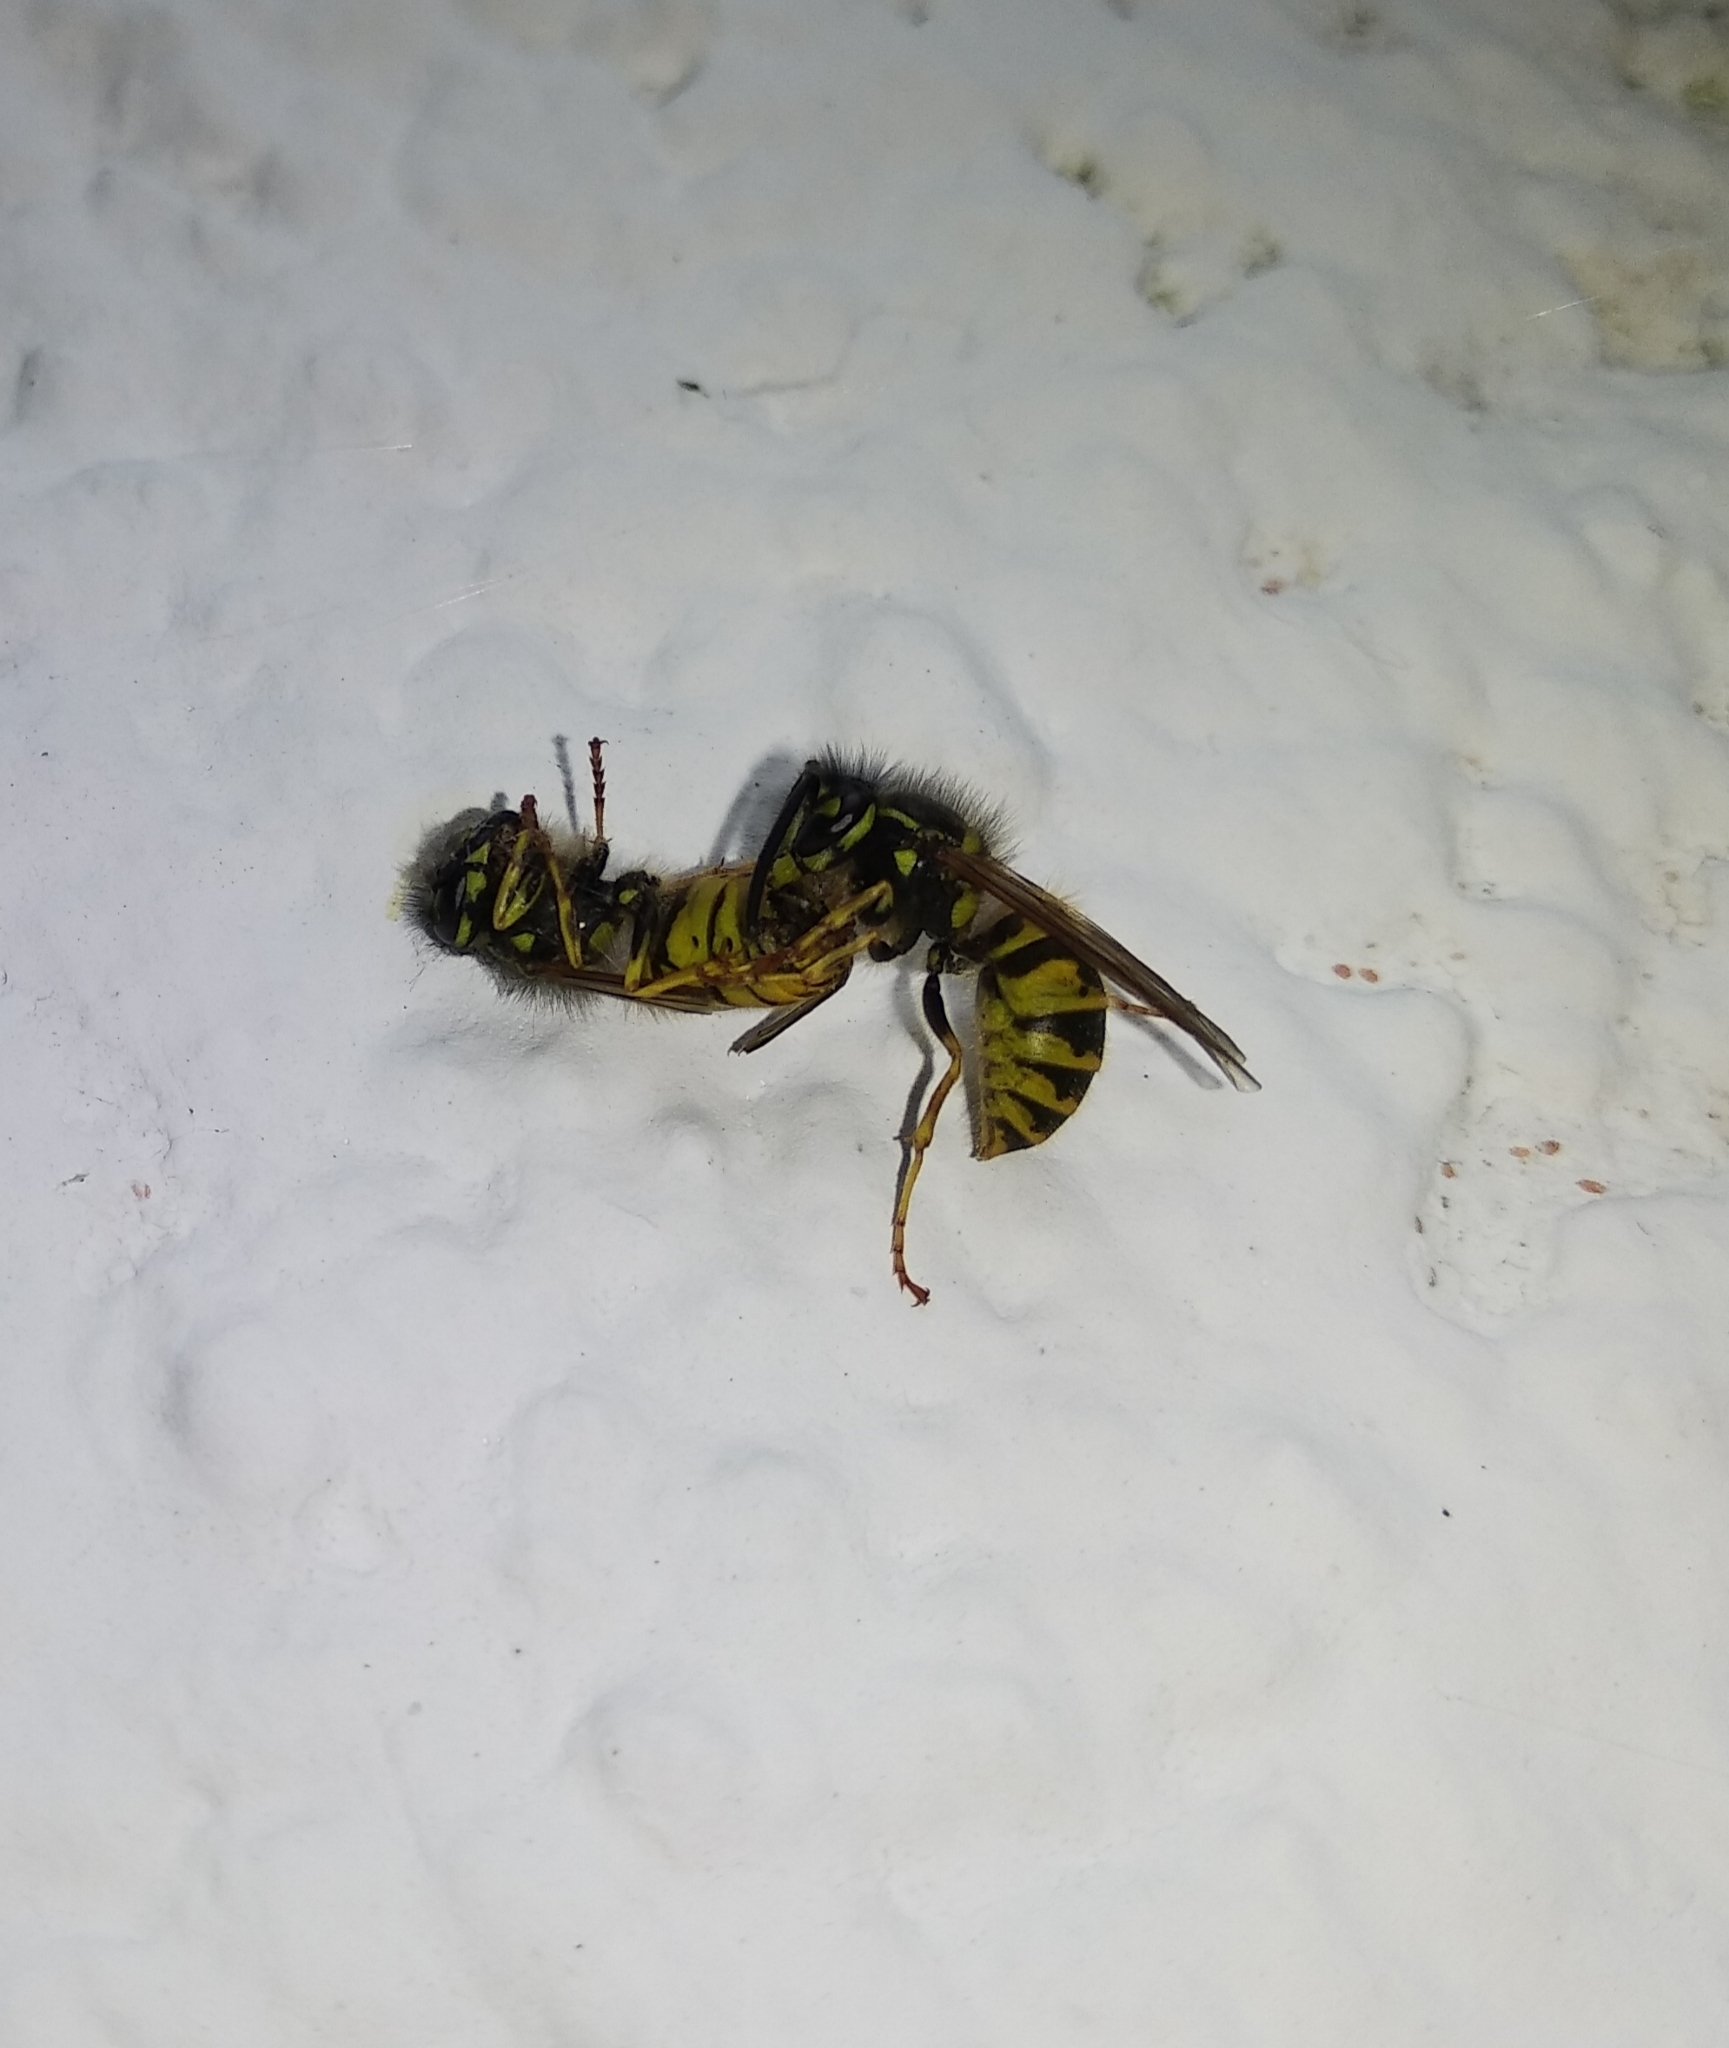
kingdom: Animalia
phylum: Arthropoda
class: Insecta
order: Hymenoptera
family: Vespidae
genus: Vespula
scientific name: Vespula vulgaris
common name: Common wasp
